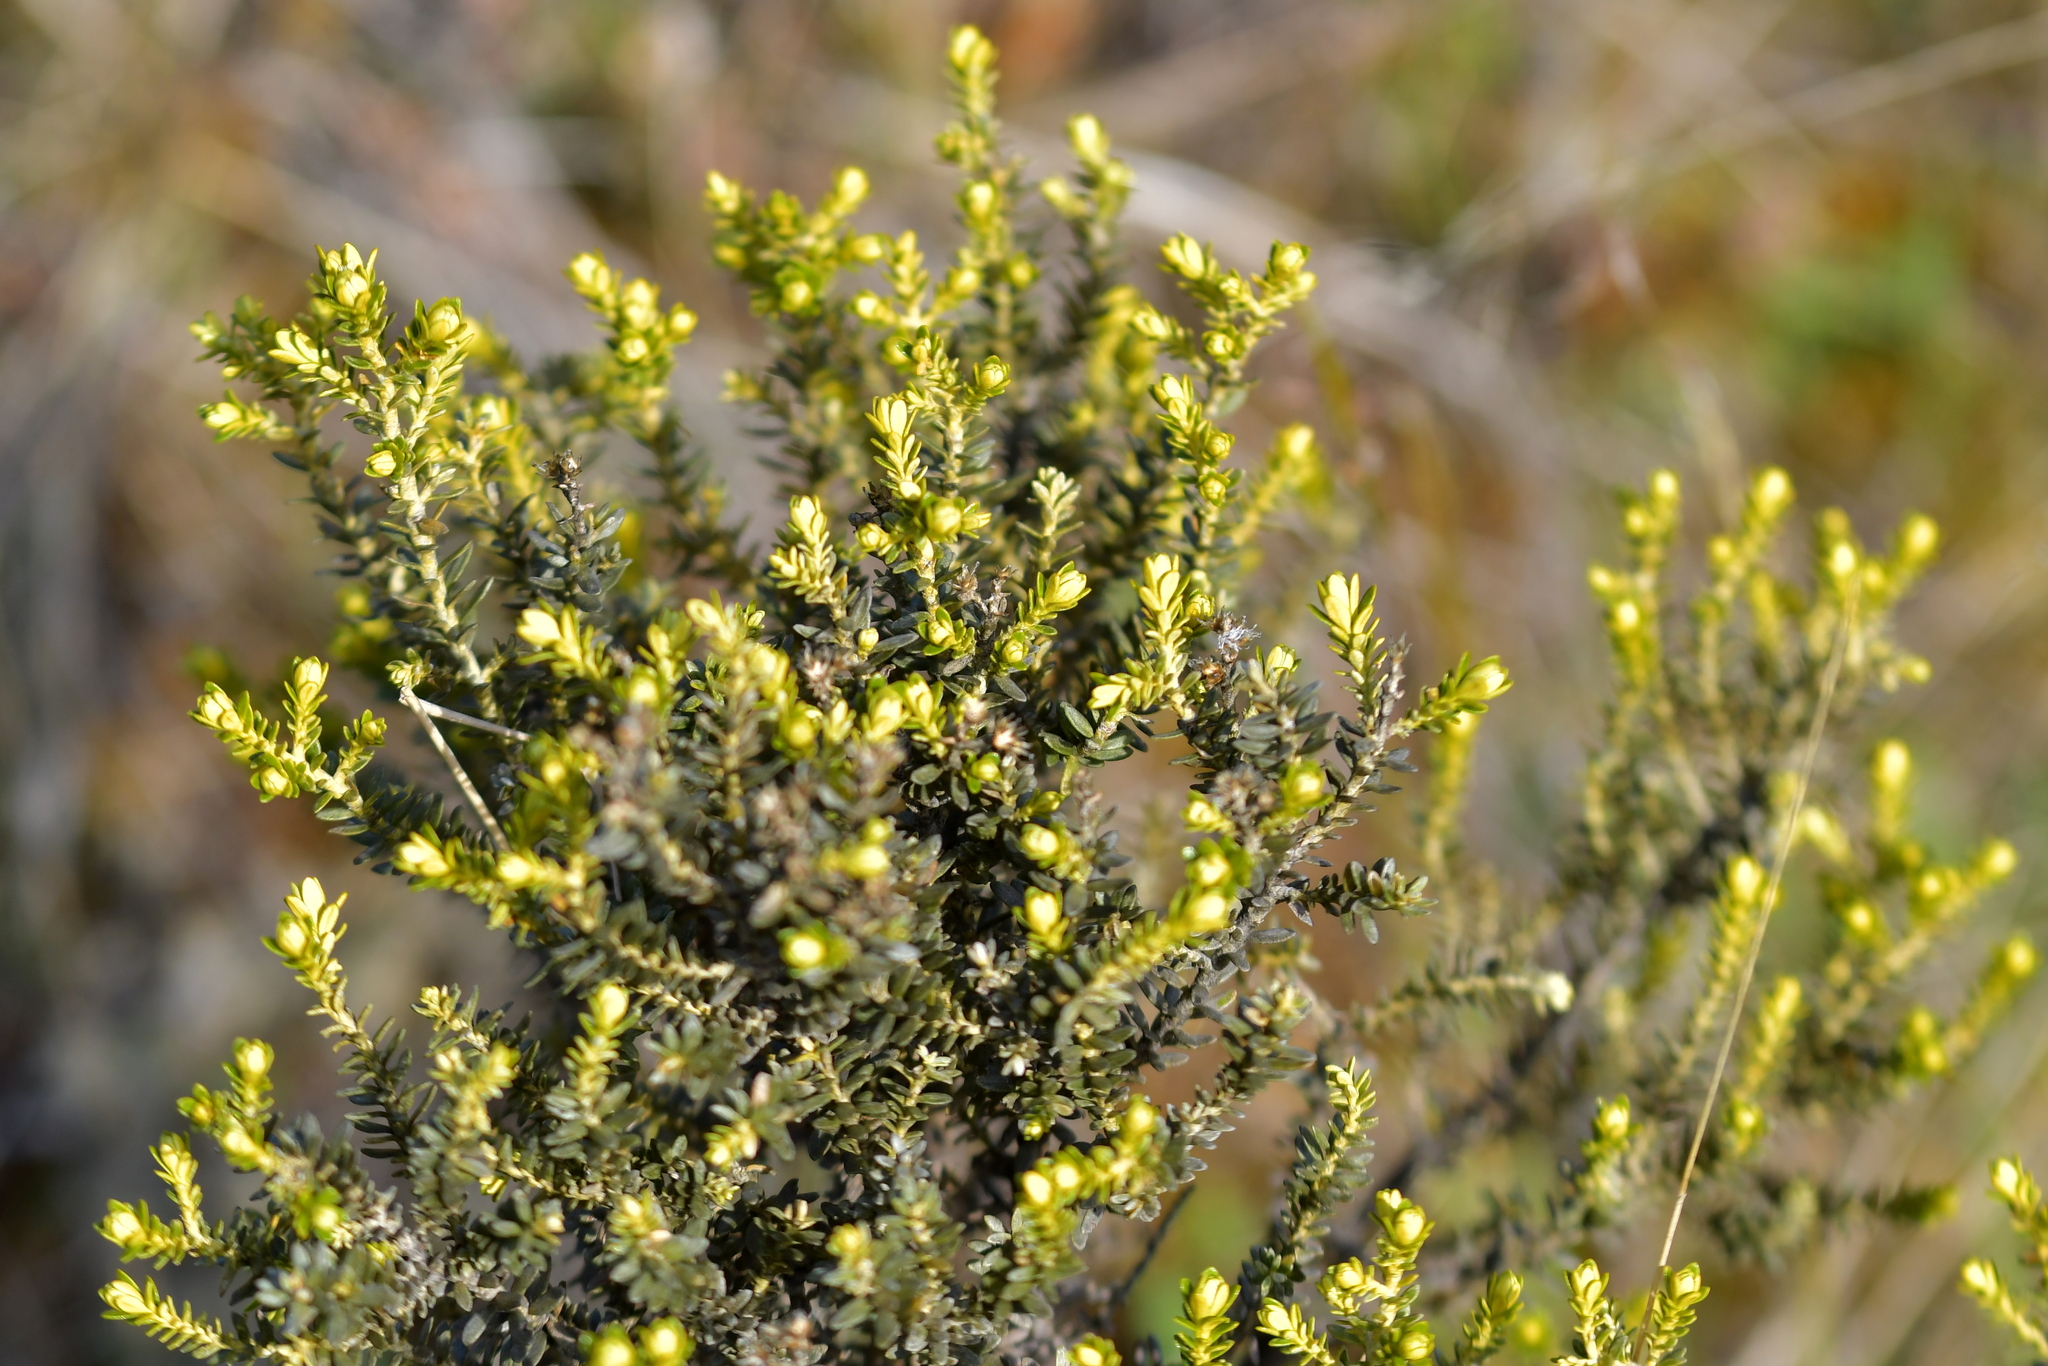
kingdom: Plantae
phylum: Tracheophyta
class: Magnoliopsida
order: Asterales
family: Asteraceae
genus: Ozothamnus
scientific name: Ozothamnus leptophyllus
